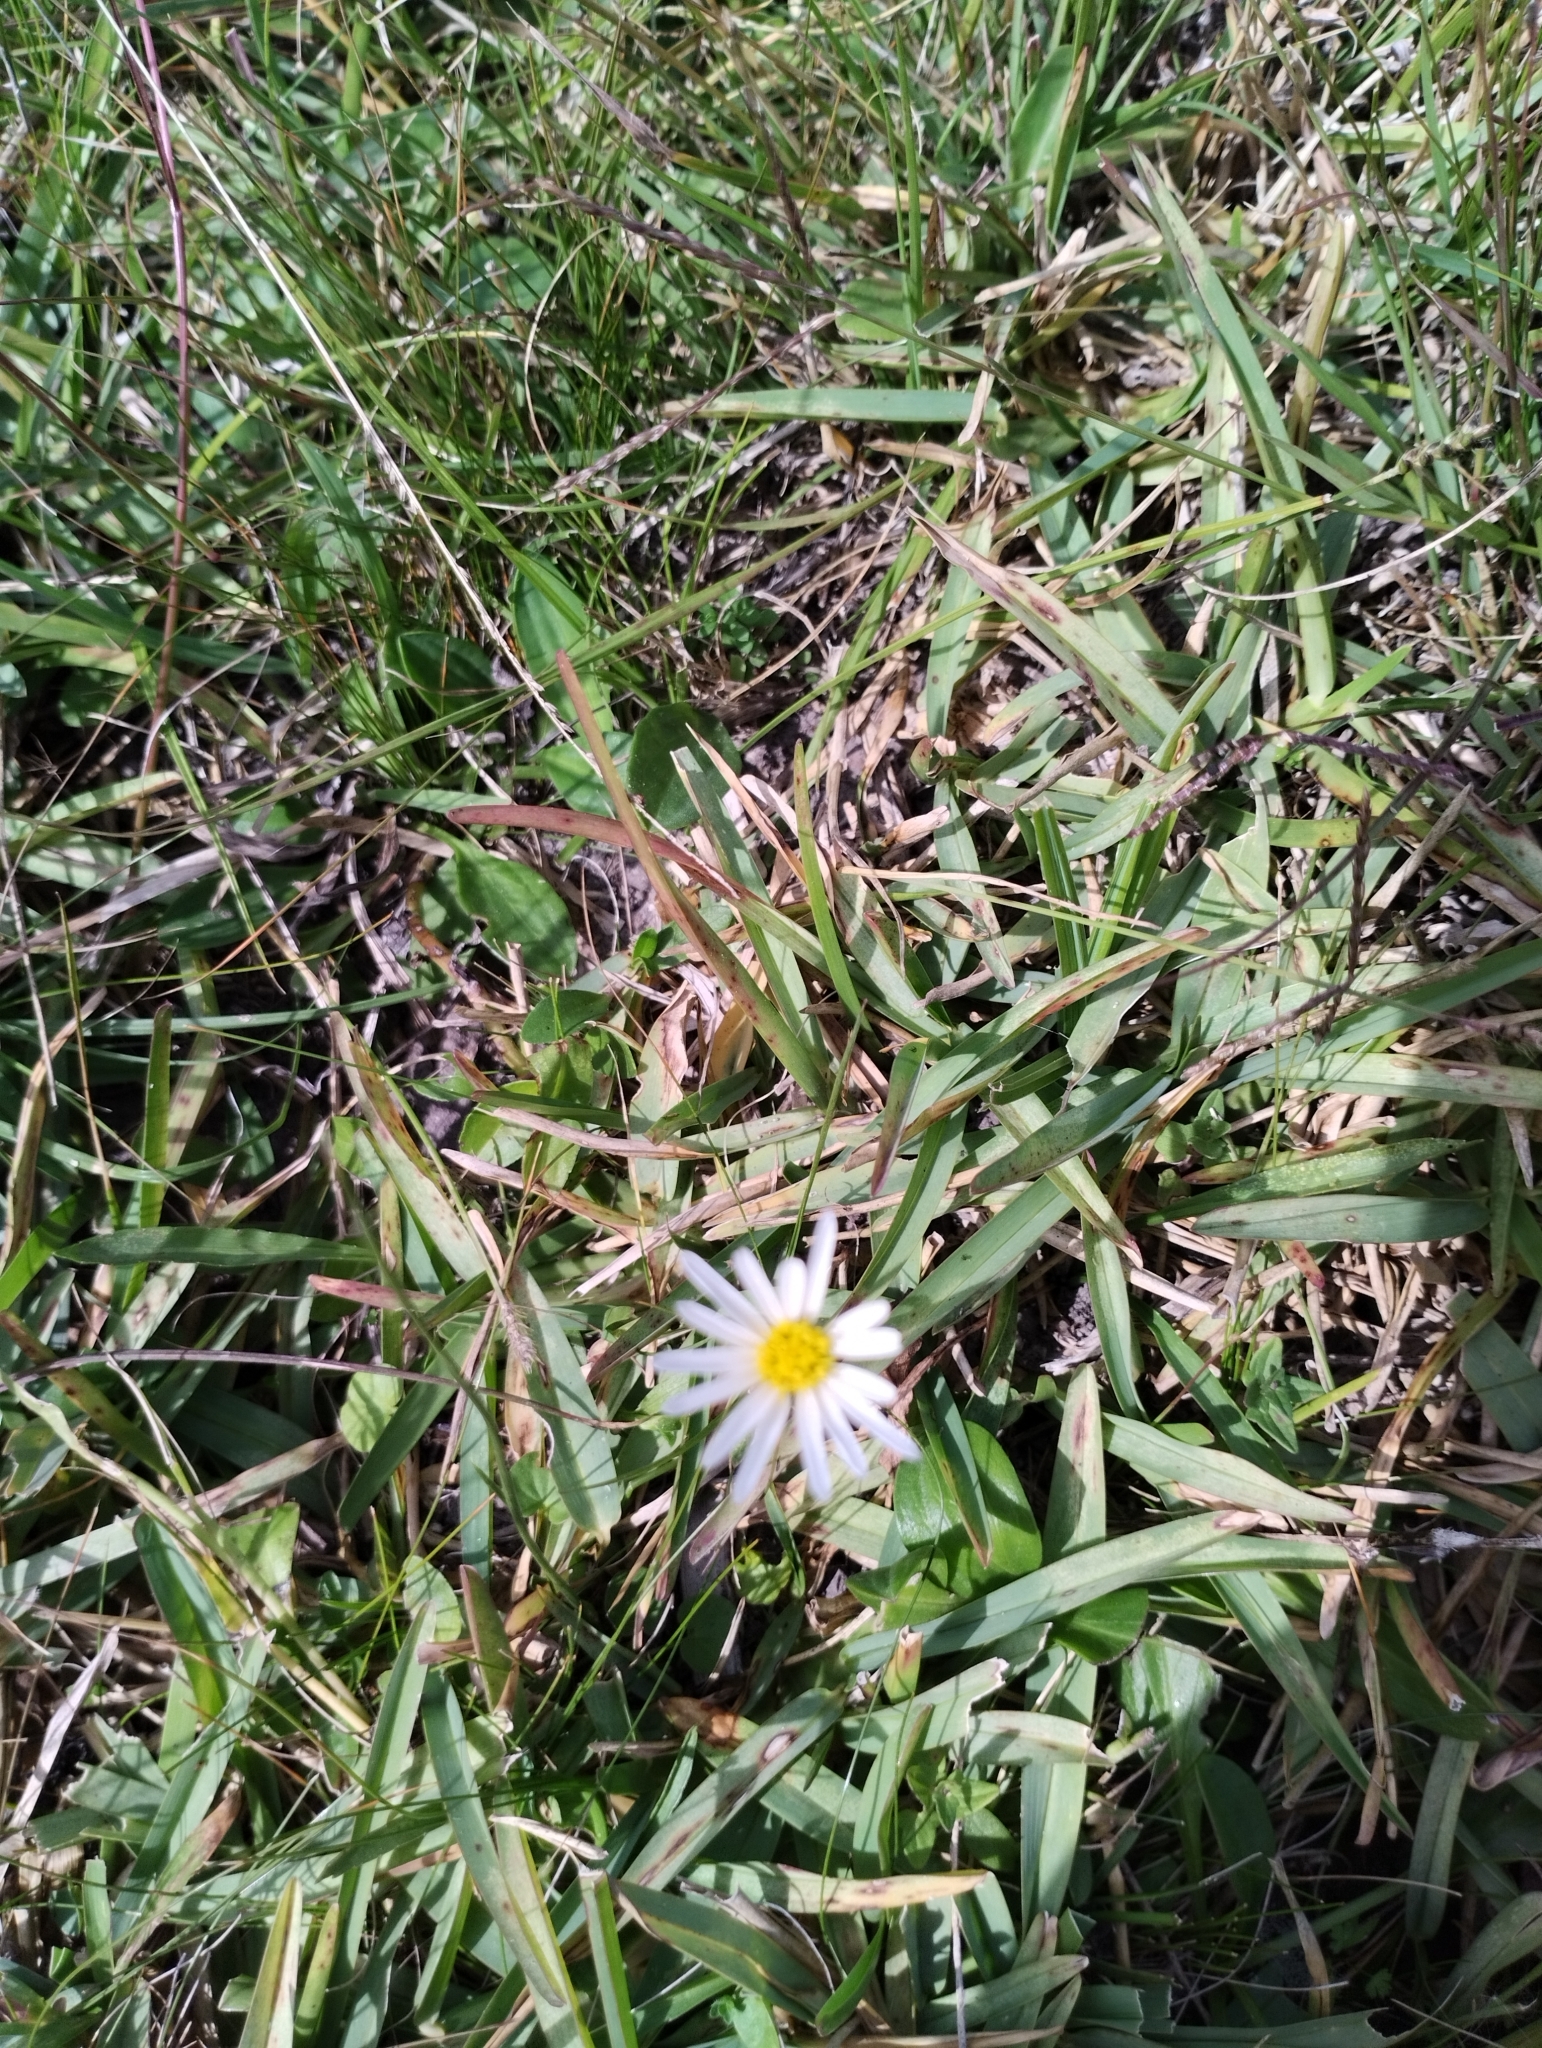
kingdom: Plantae
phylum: Tracheophyta
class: Magnoliopsida
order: Asterales
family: Asteraceae
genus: Noticastrum
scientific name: Noticastrum chebataroffii
